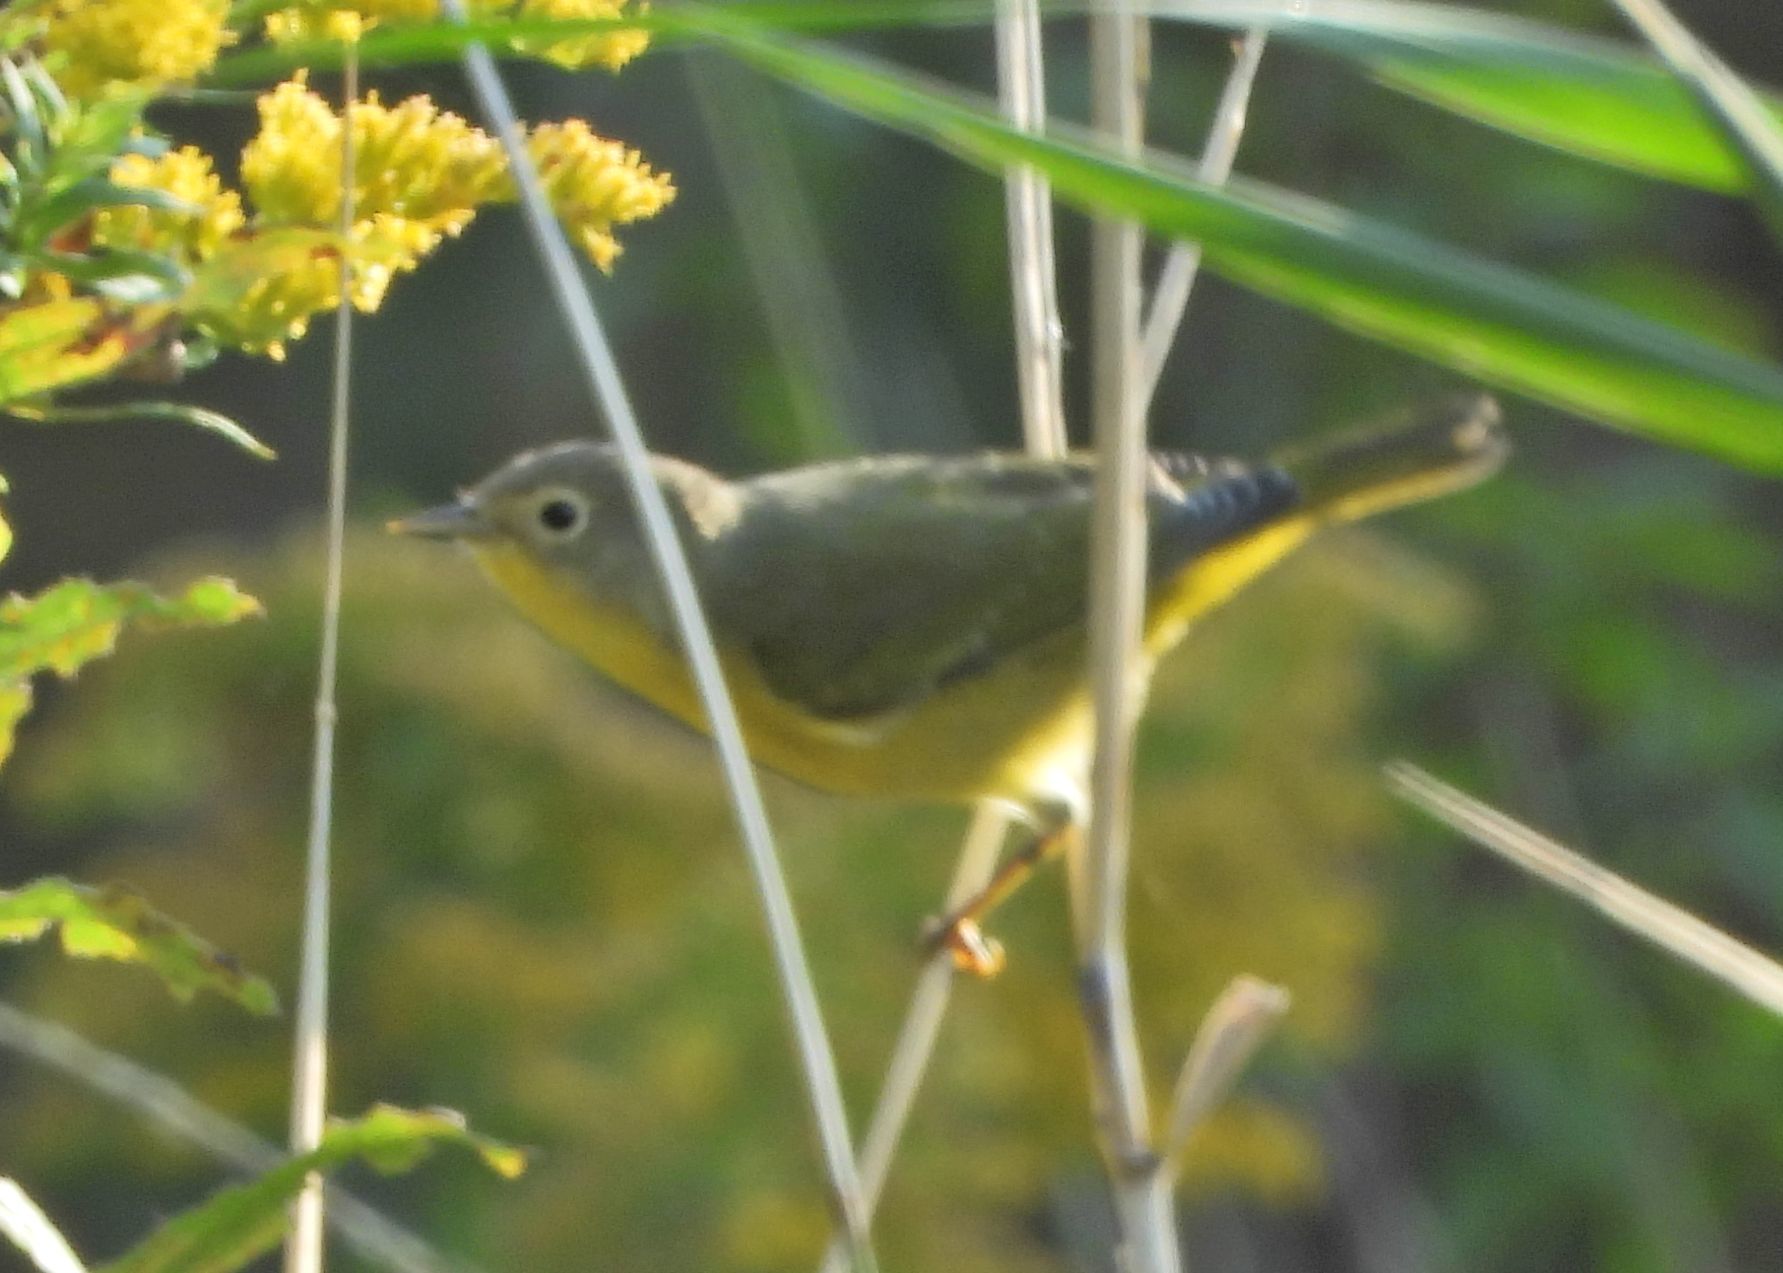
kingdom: Animalia
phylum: Chordata
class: Aves
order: Passeriformes
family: Parulidae
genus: Leiothlypis
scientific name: Leiothlypis ruficapilla
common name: Nashville warbler
